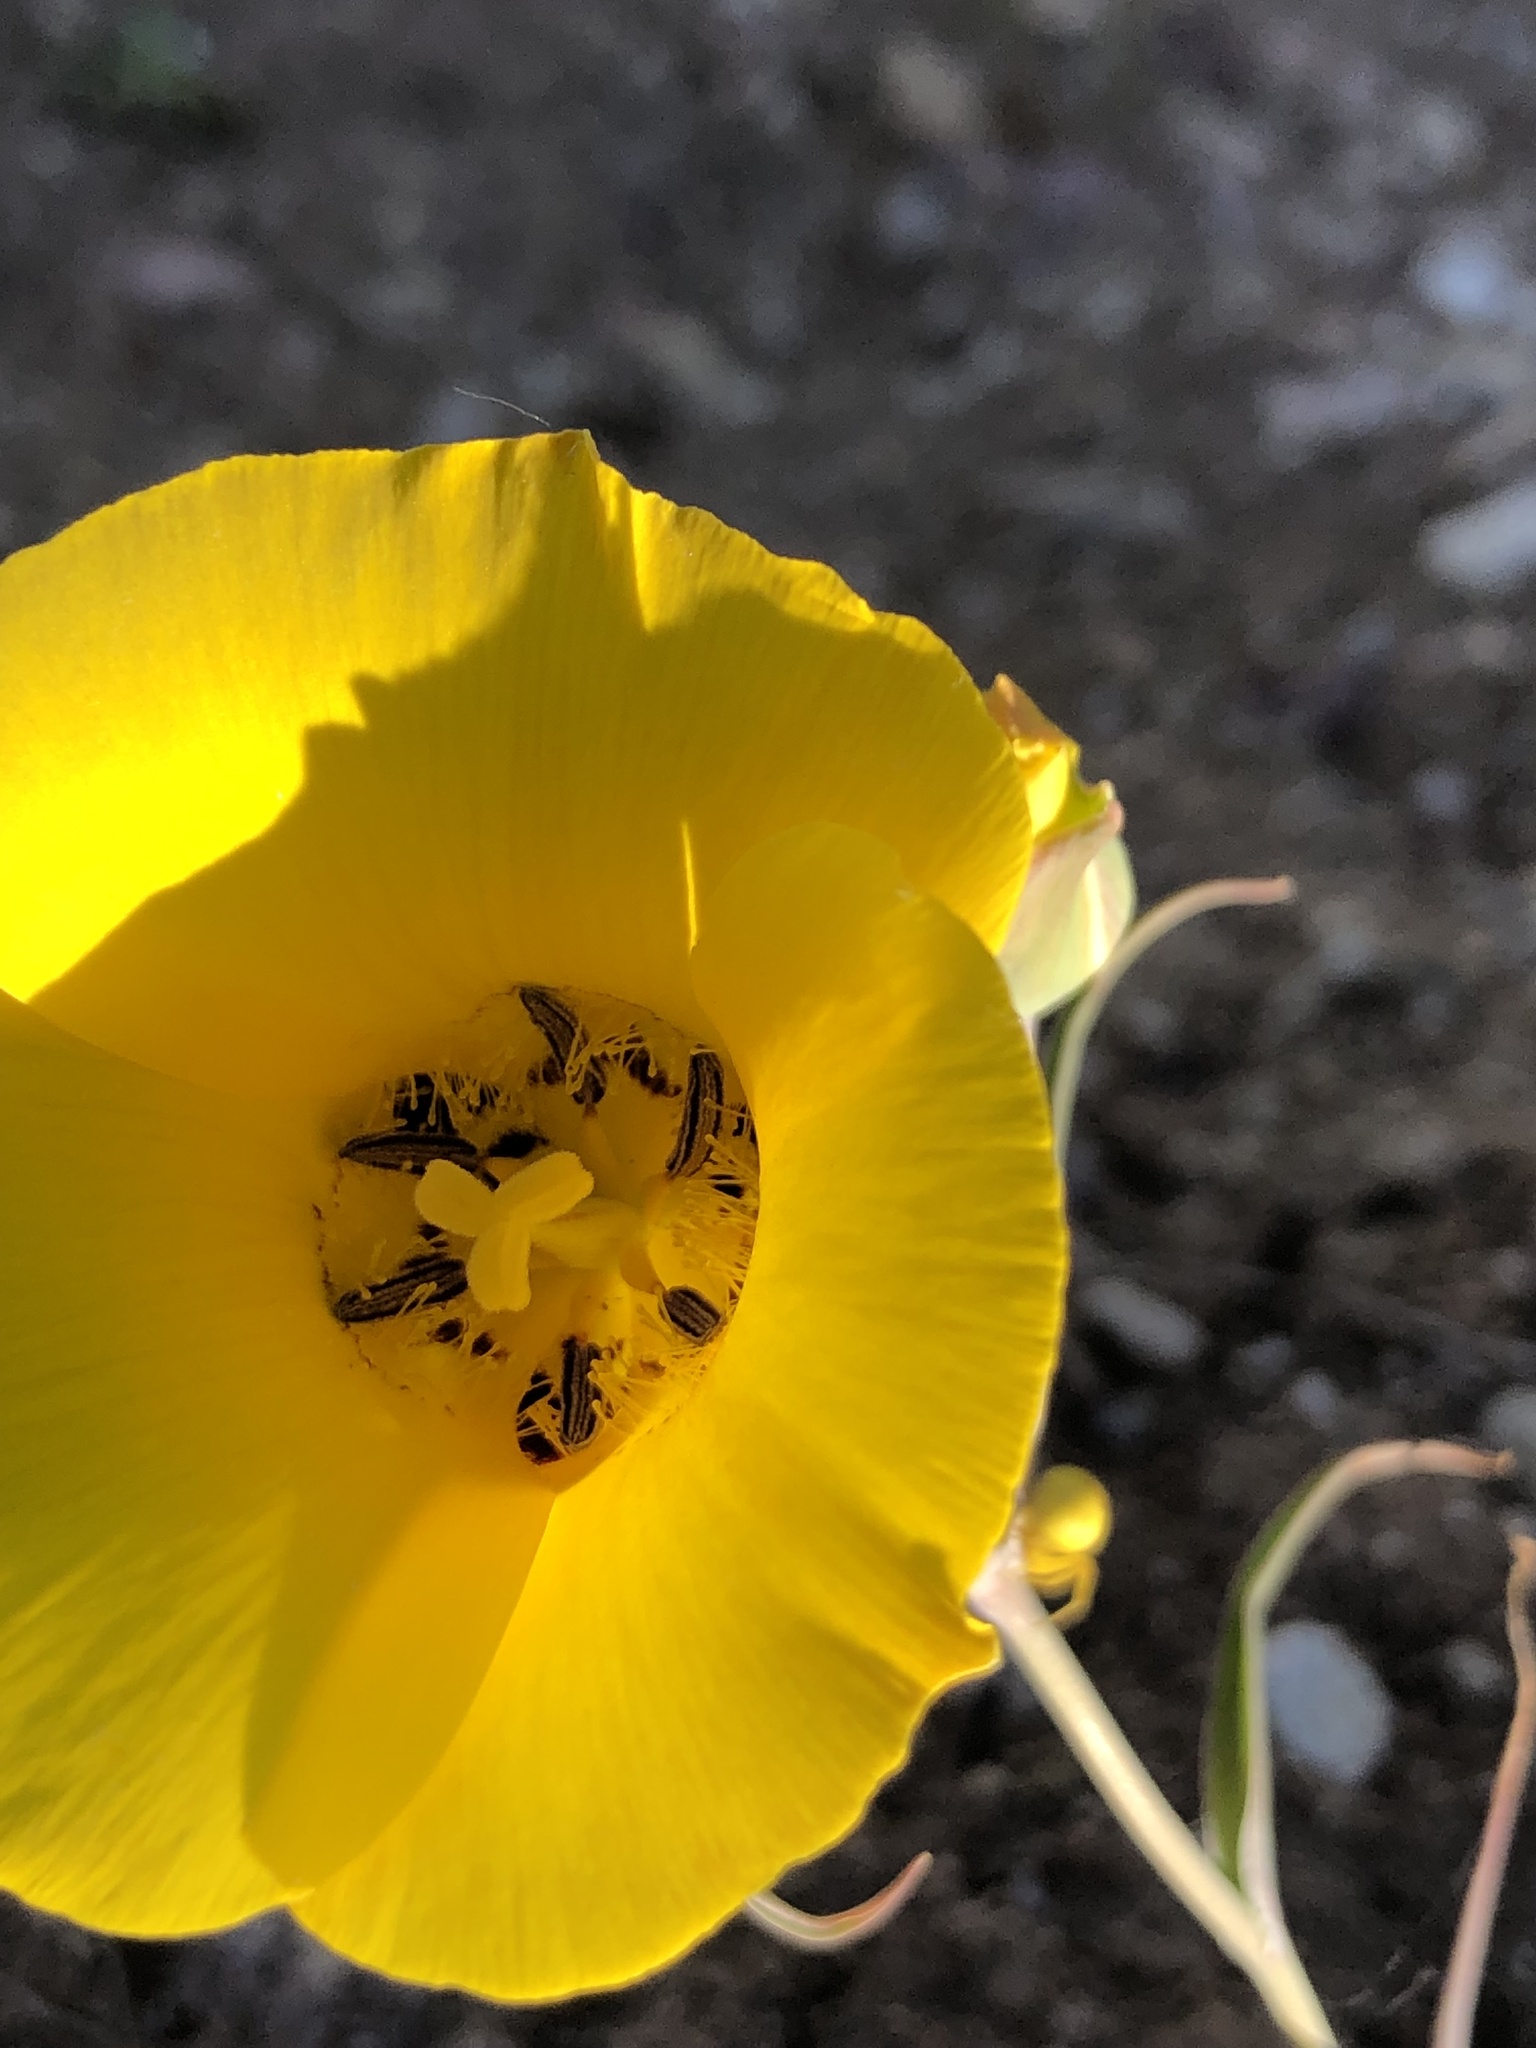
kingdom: Plantae
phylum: Tracheophyta
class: Liliopsida
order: Liliales
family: Liliaceae
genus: Calochortus
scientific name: Calochortus clavatus
